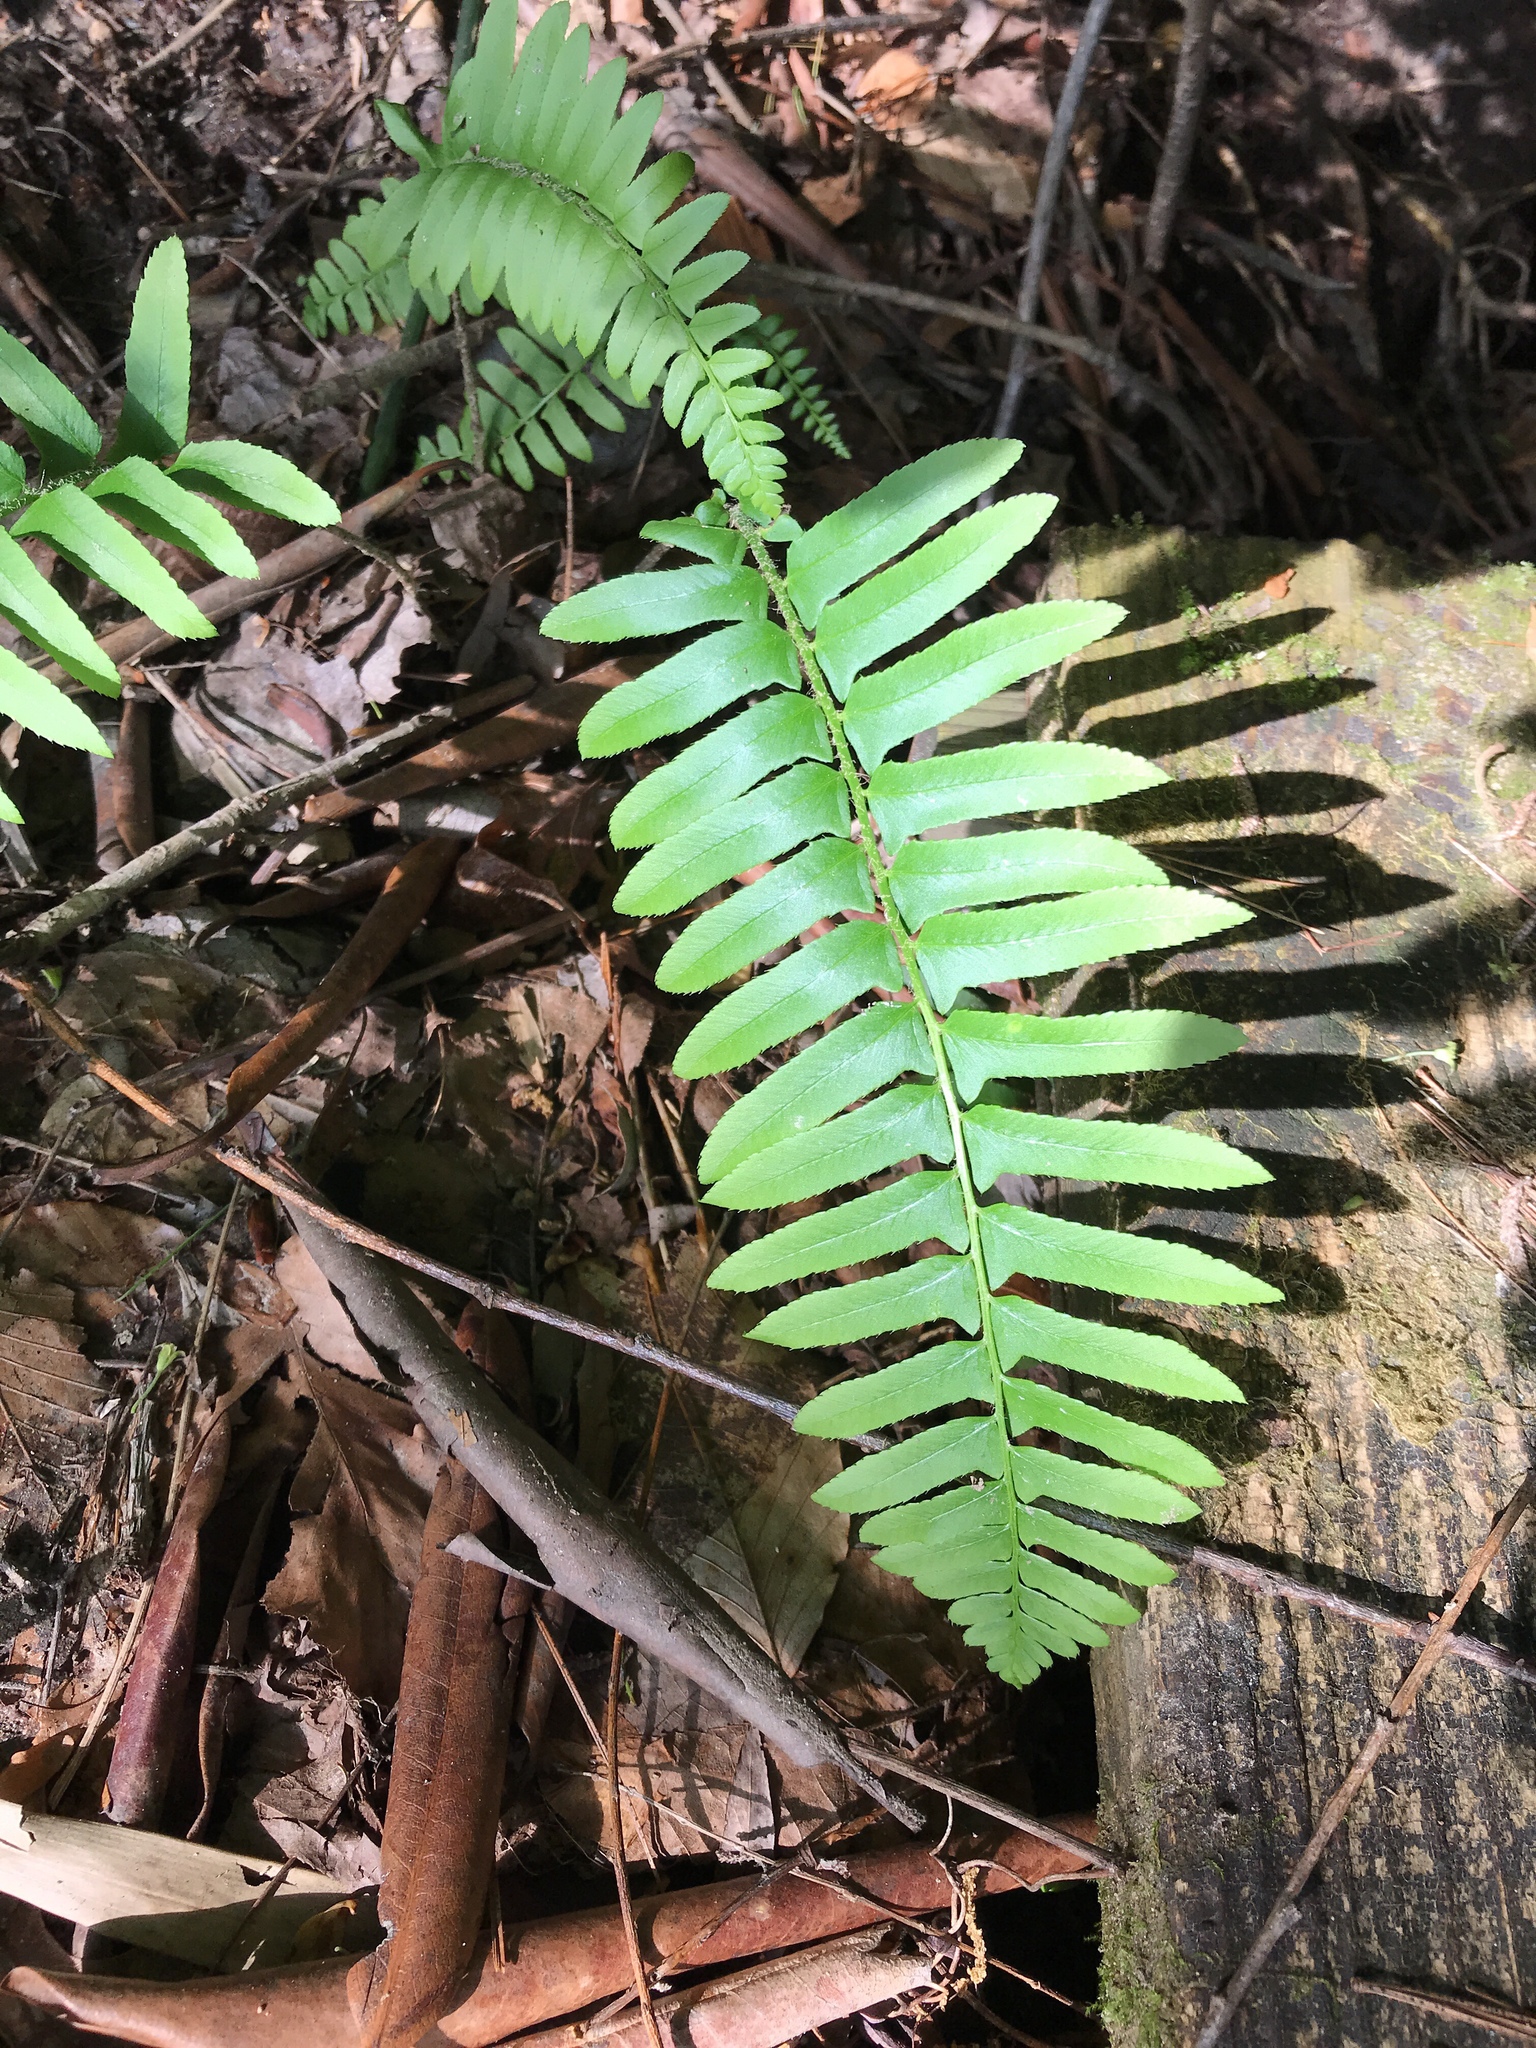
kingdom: Plantae
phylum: Tracheophyta
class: Polypodiopsida
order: Polypodiales
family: Dryopteridaceae
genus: Polystichum
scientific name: Polystichum acrostichoides
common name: Christmas fern
